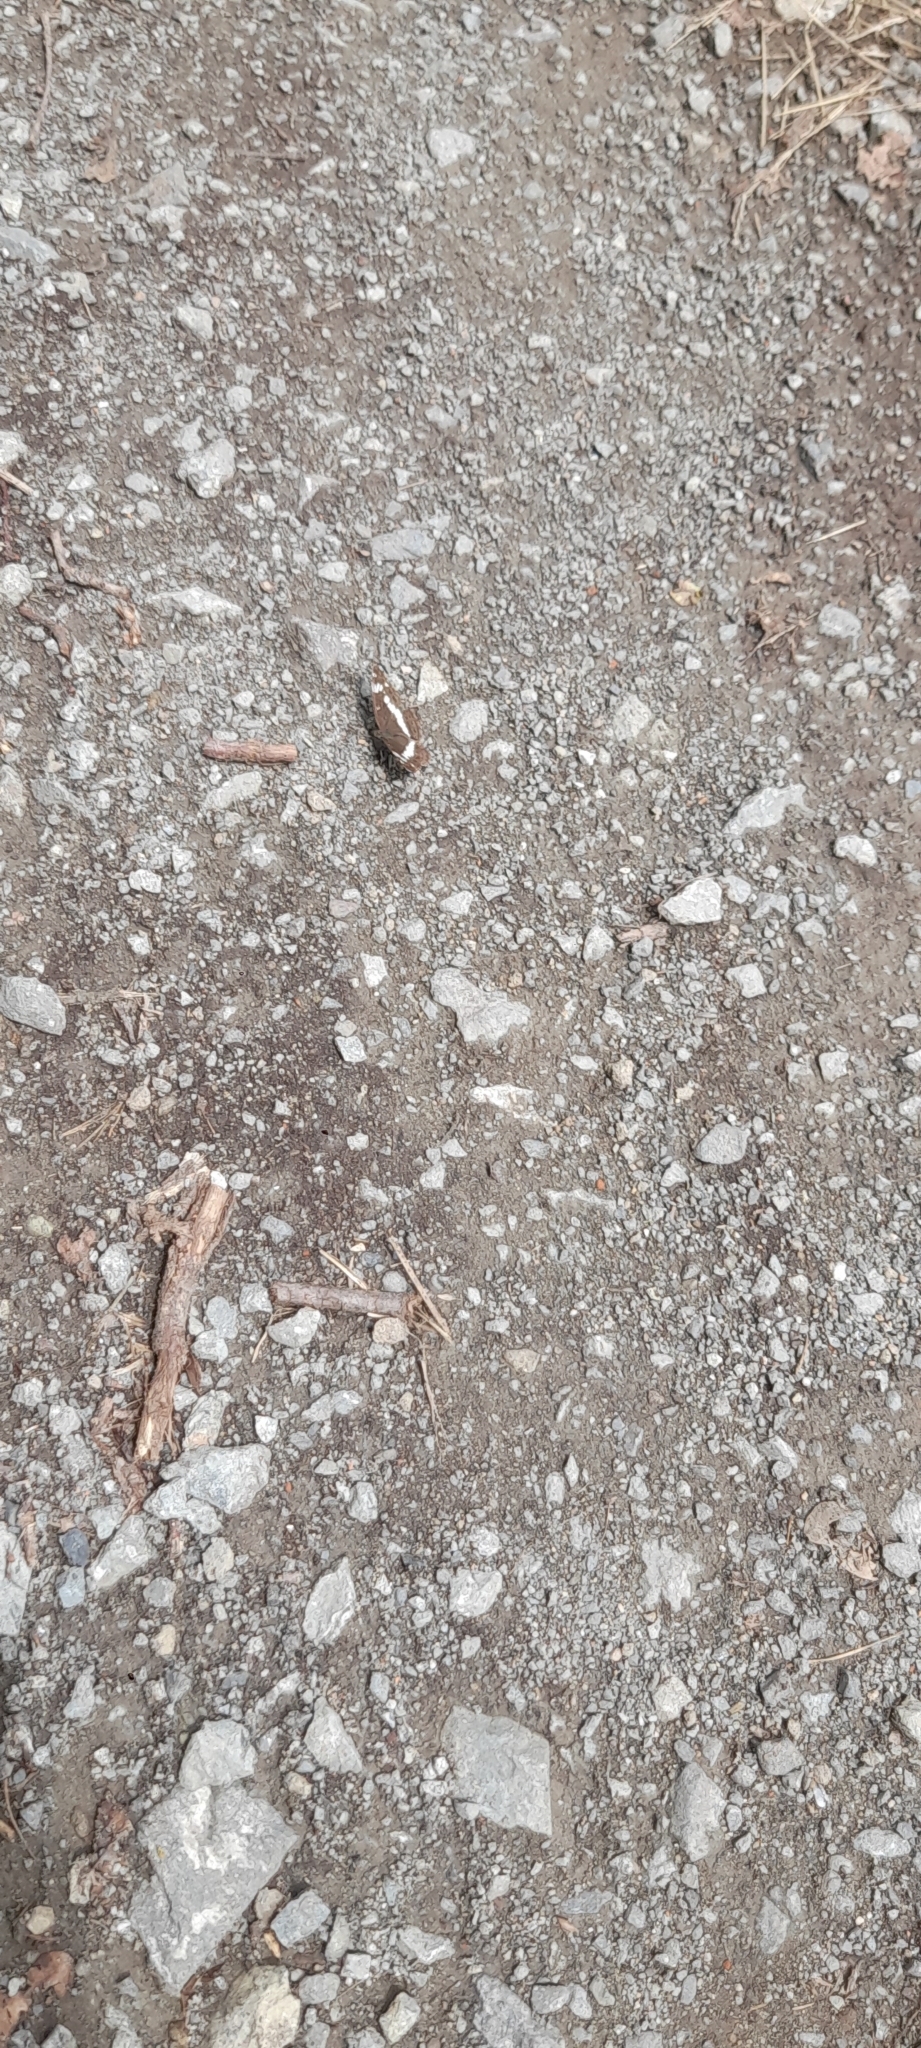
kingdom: Animalia
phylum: Arthropoda
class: Insecta
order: Lepidoptera
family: Nymphalidae
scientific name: Nymphalidae
